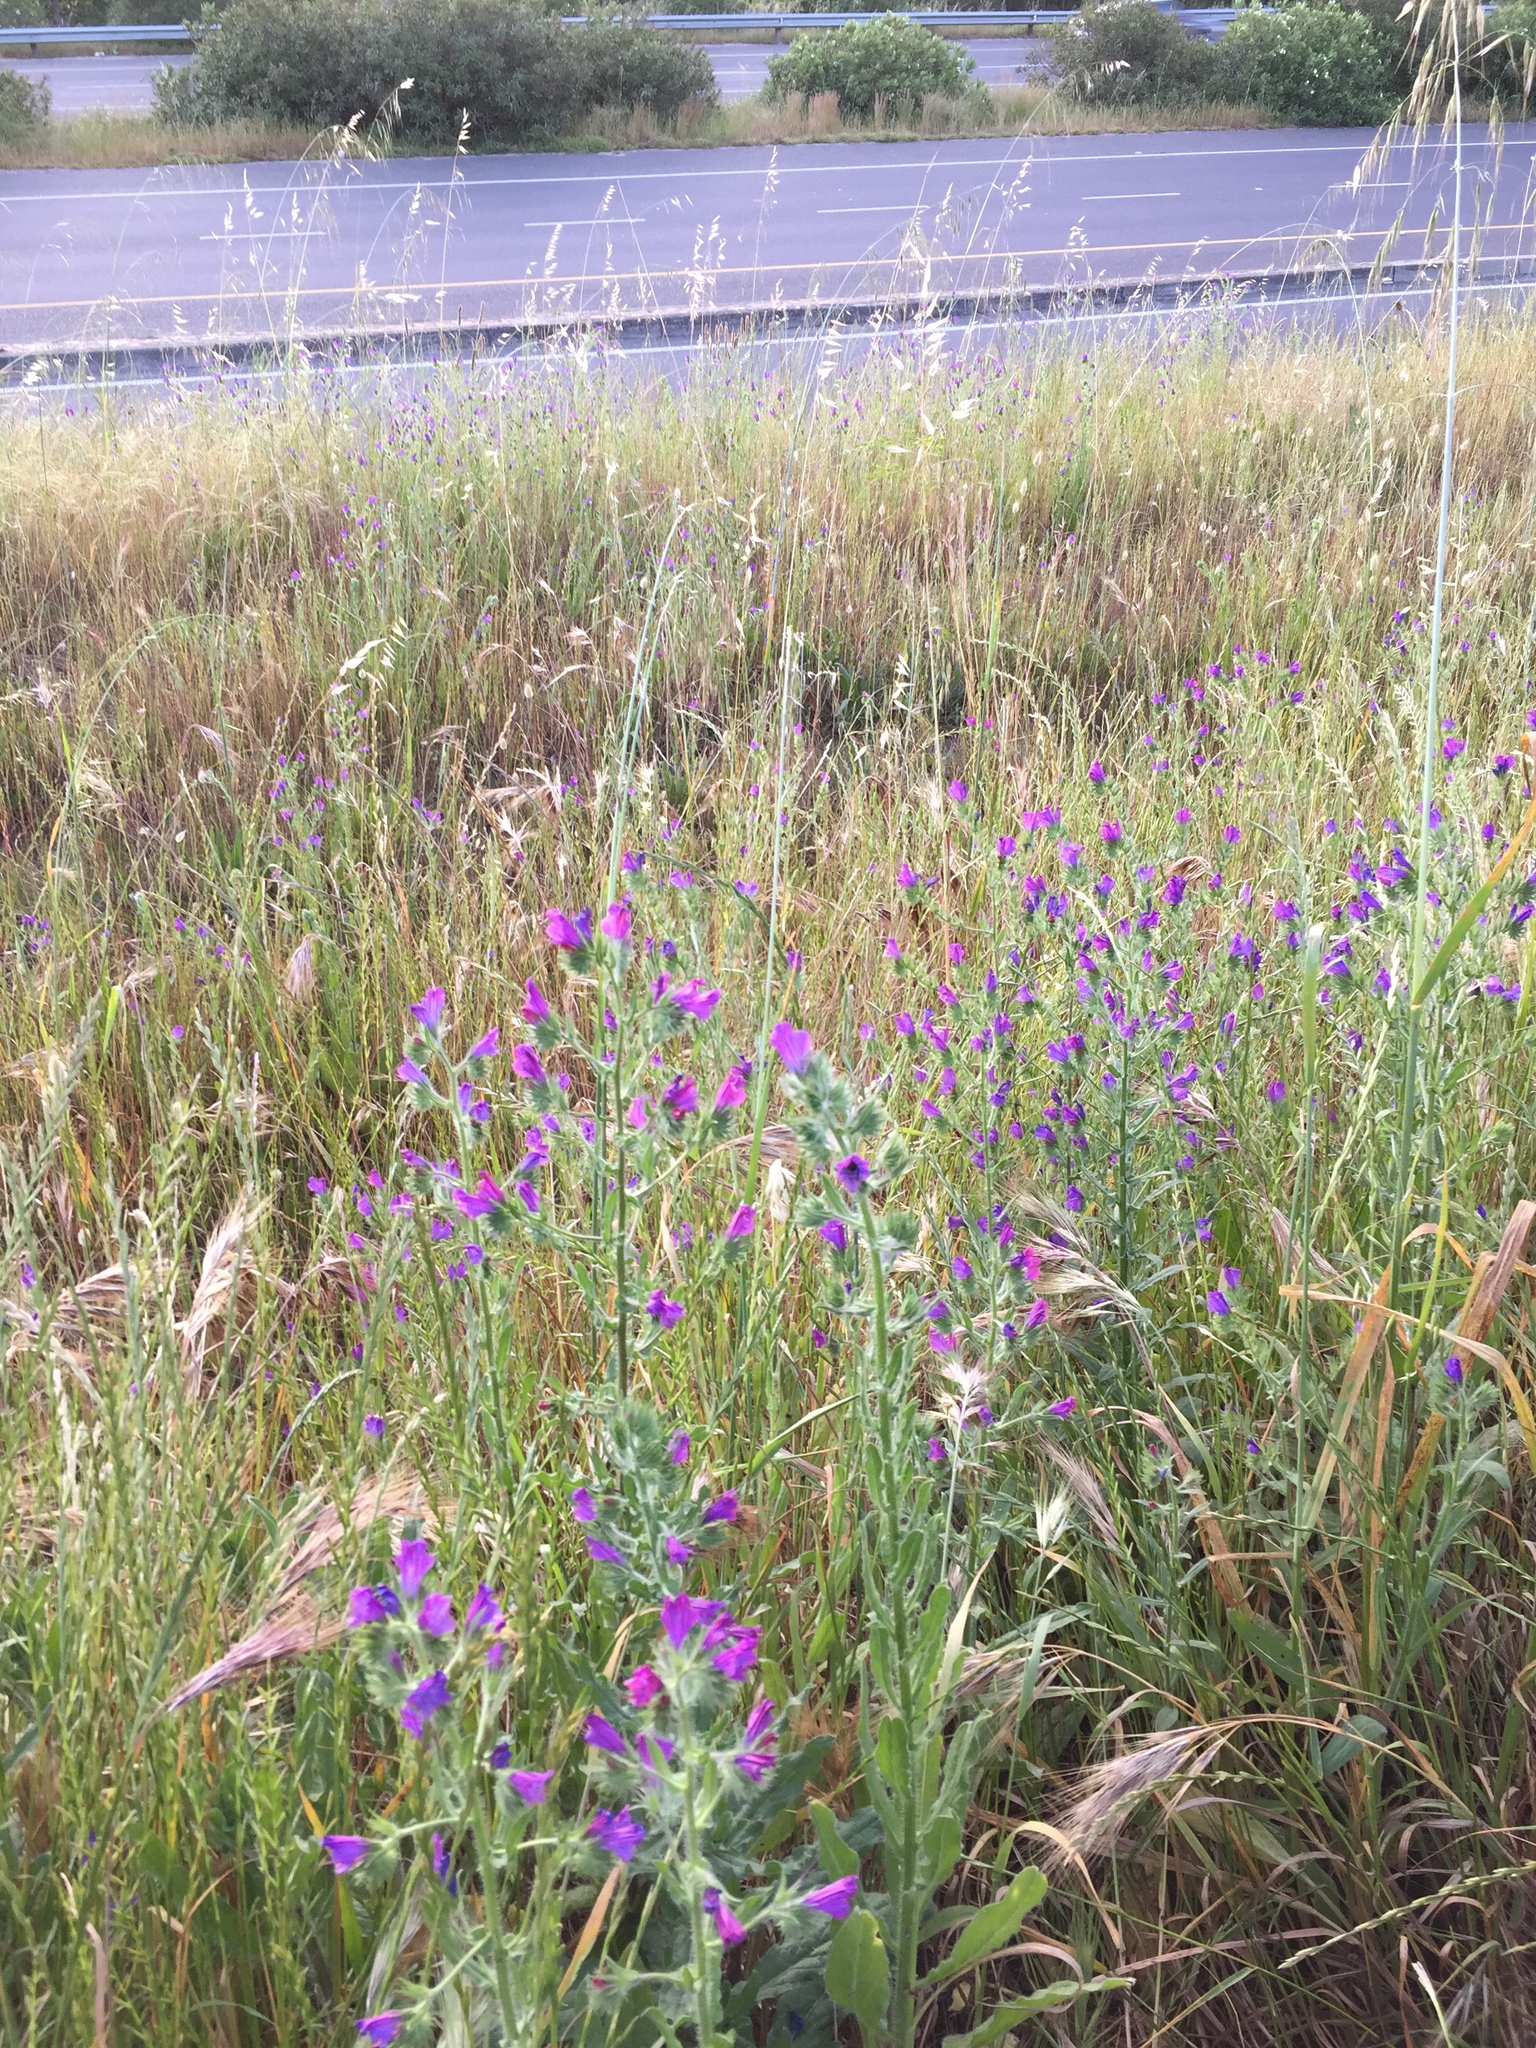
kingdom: Plantae
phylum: Tracheophyta
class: Magnoliopsida
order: Boraginales
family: Boraginaceae
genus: Echium
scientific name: Echium plantagineum
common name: Purple viper's-bugloss
